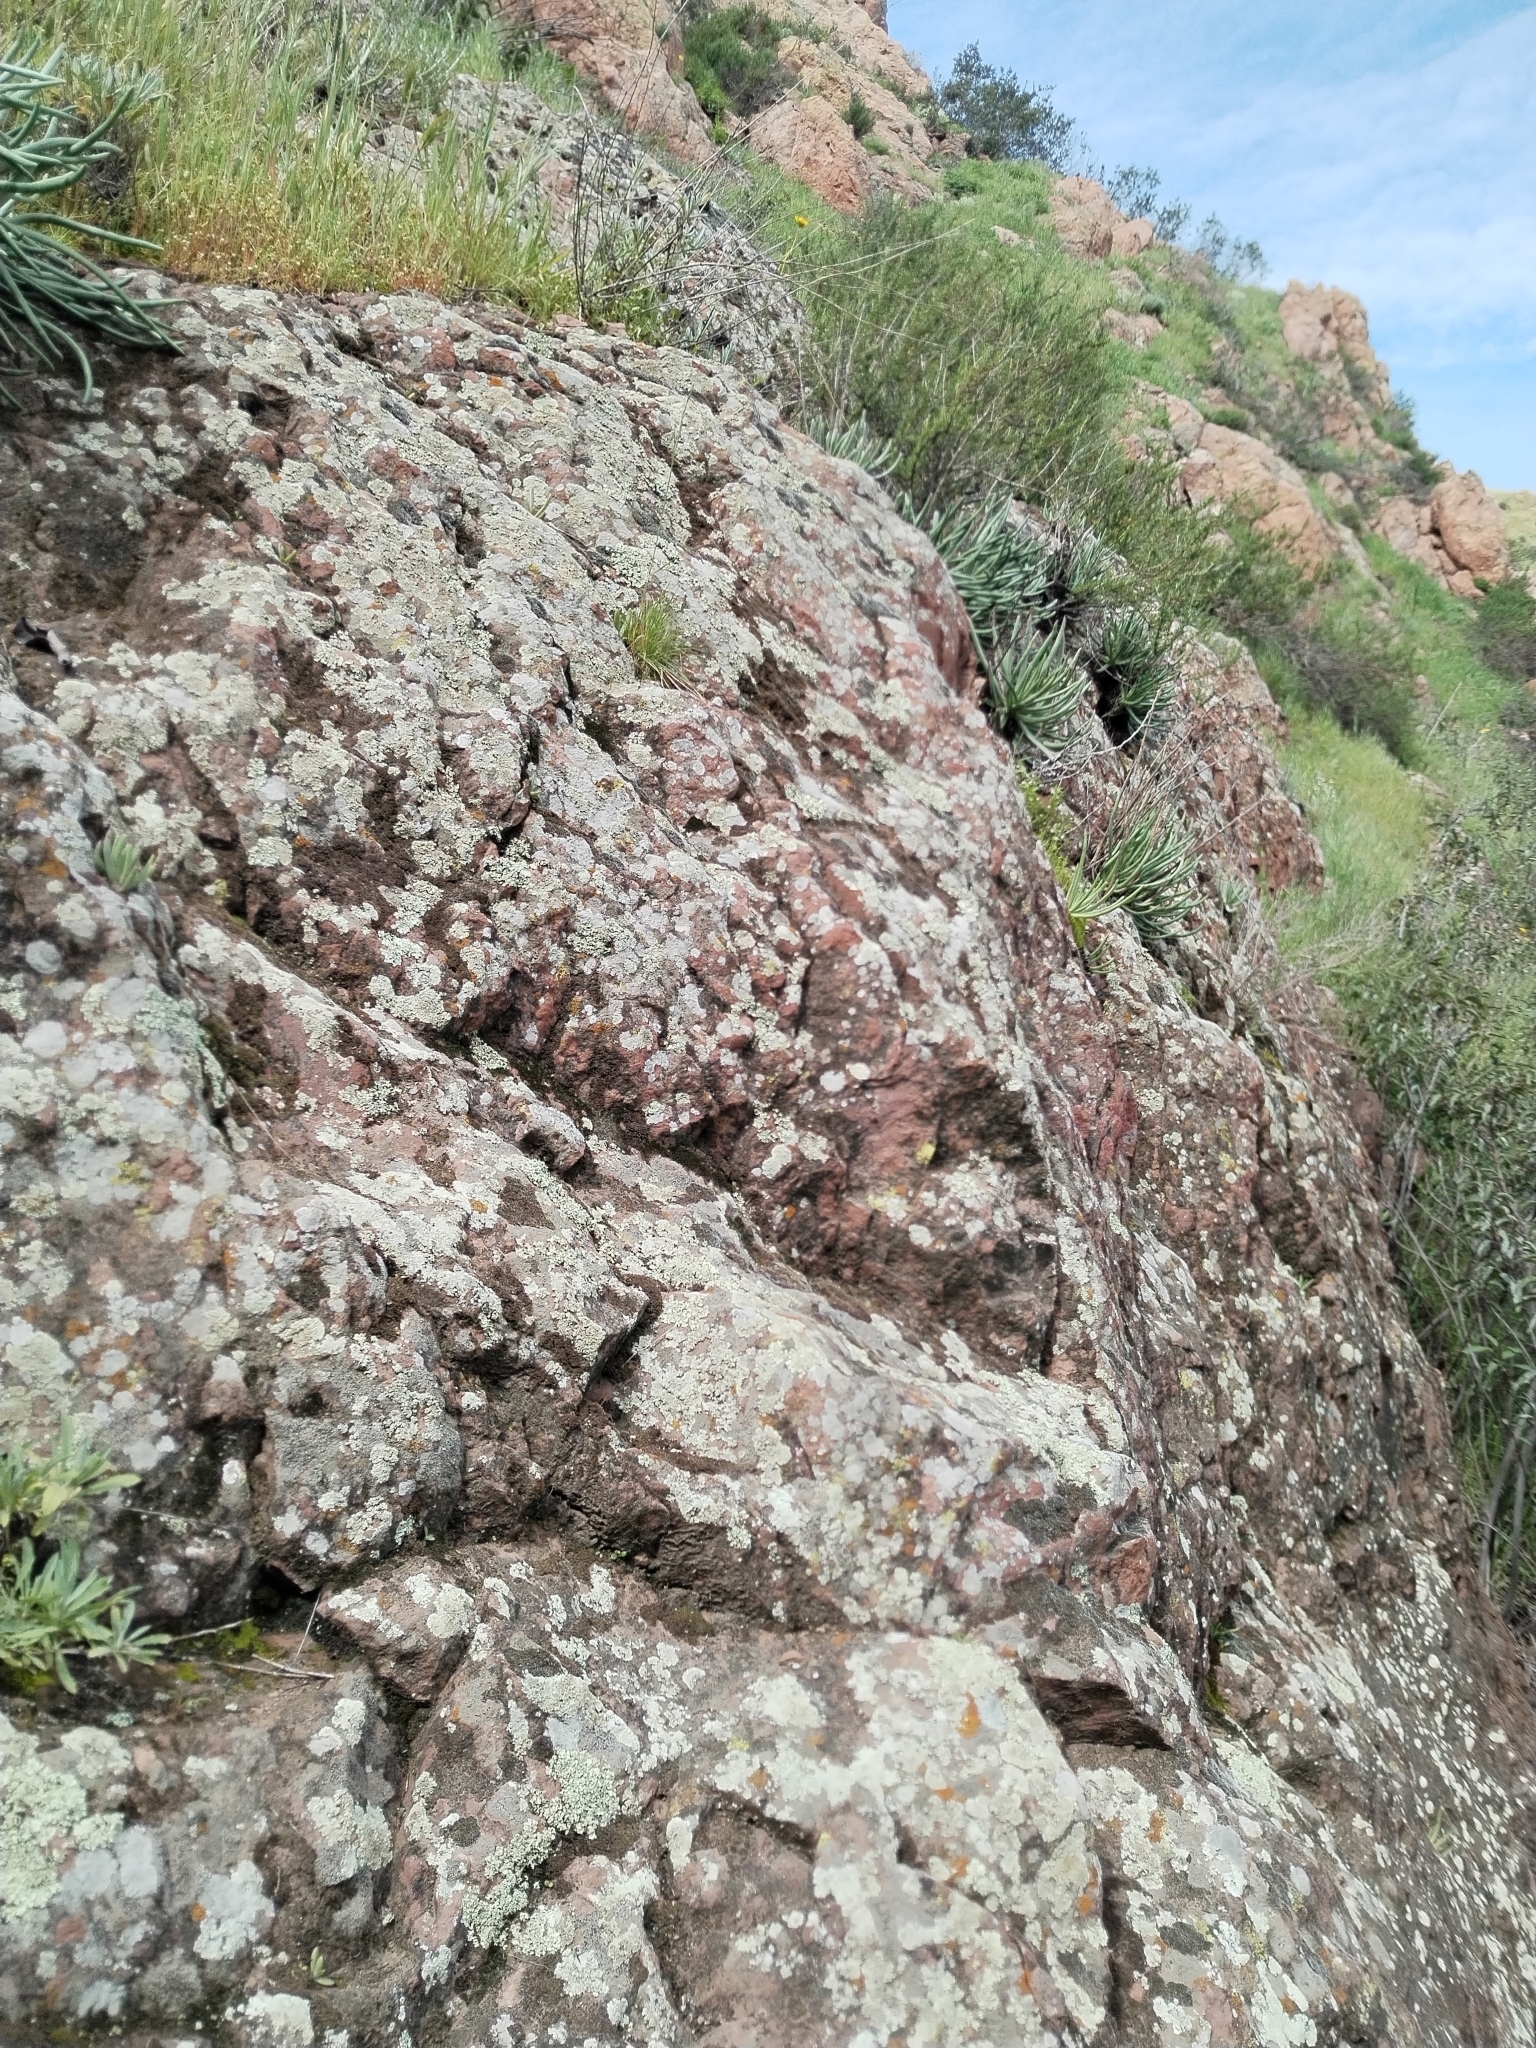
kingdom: Plantae
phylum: Tracheophyta
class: Magnoliopsida
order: Saxifragales
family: Crassulaceae
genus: Dudleya
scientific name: Dudleya edulis
